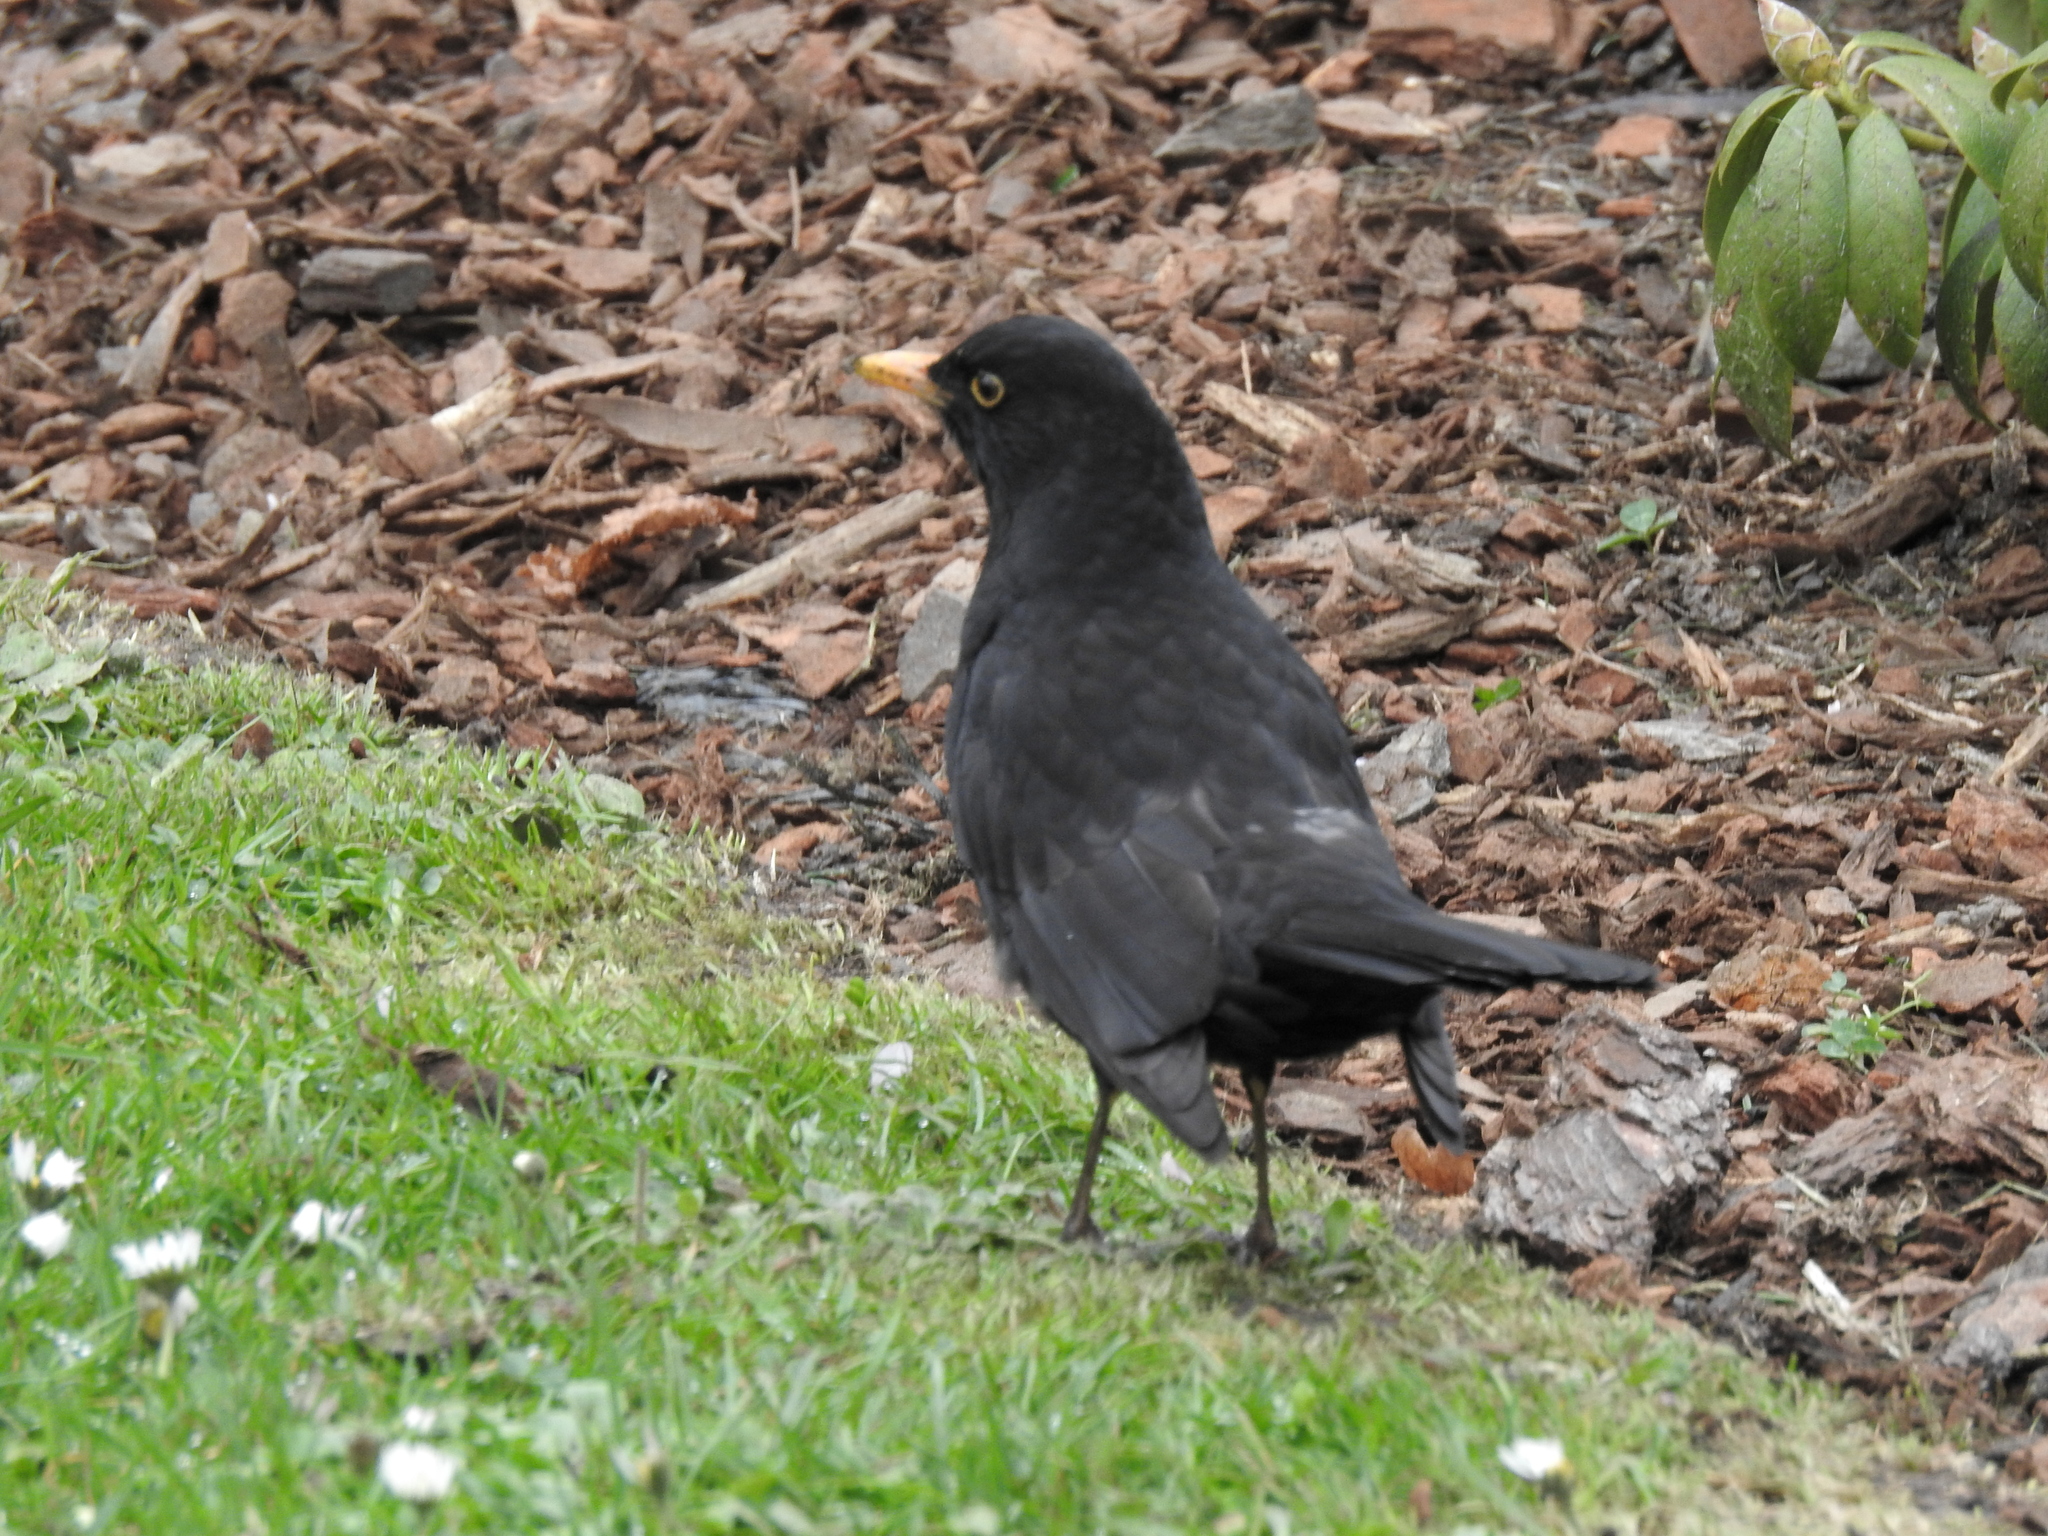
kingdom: Animalia
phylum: Chordata
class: Aves
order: Passeriformes
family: Turdidae
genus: Turdus
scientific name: Turdus merula
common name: Common blackbird
